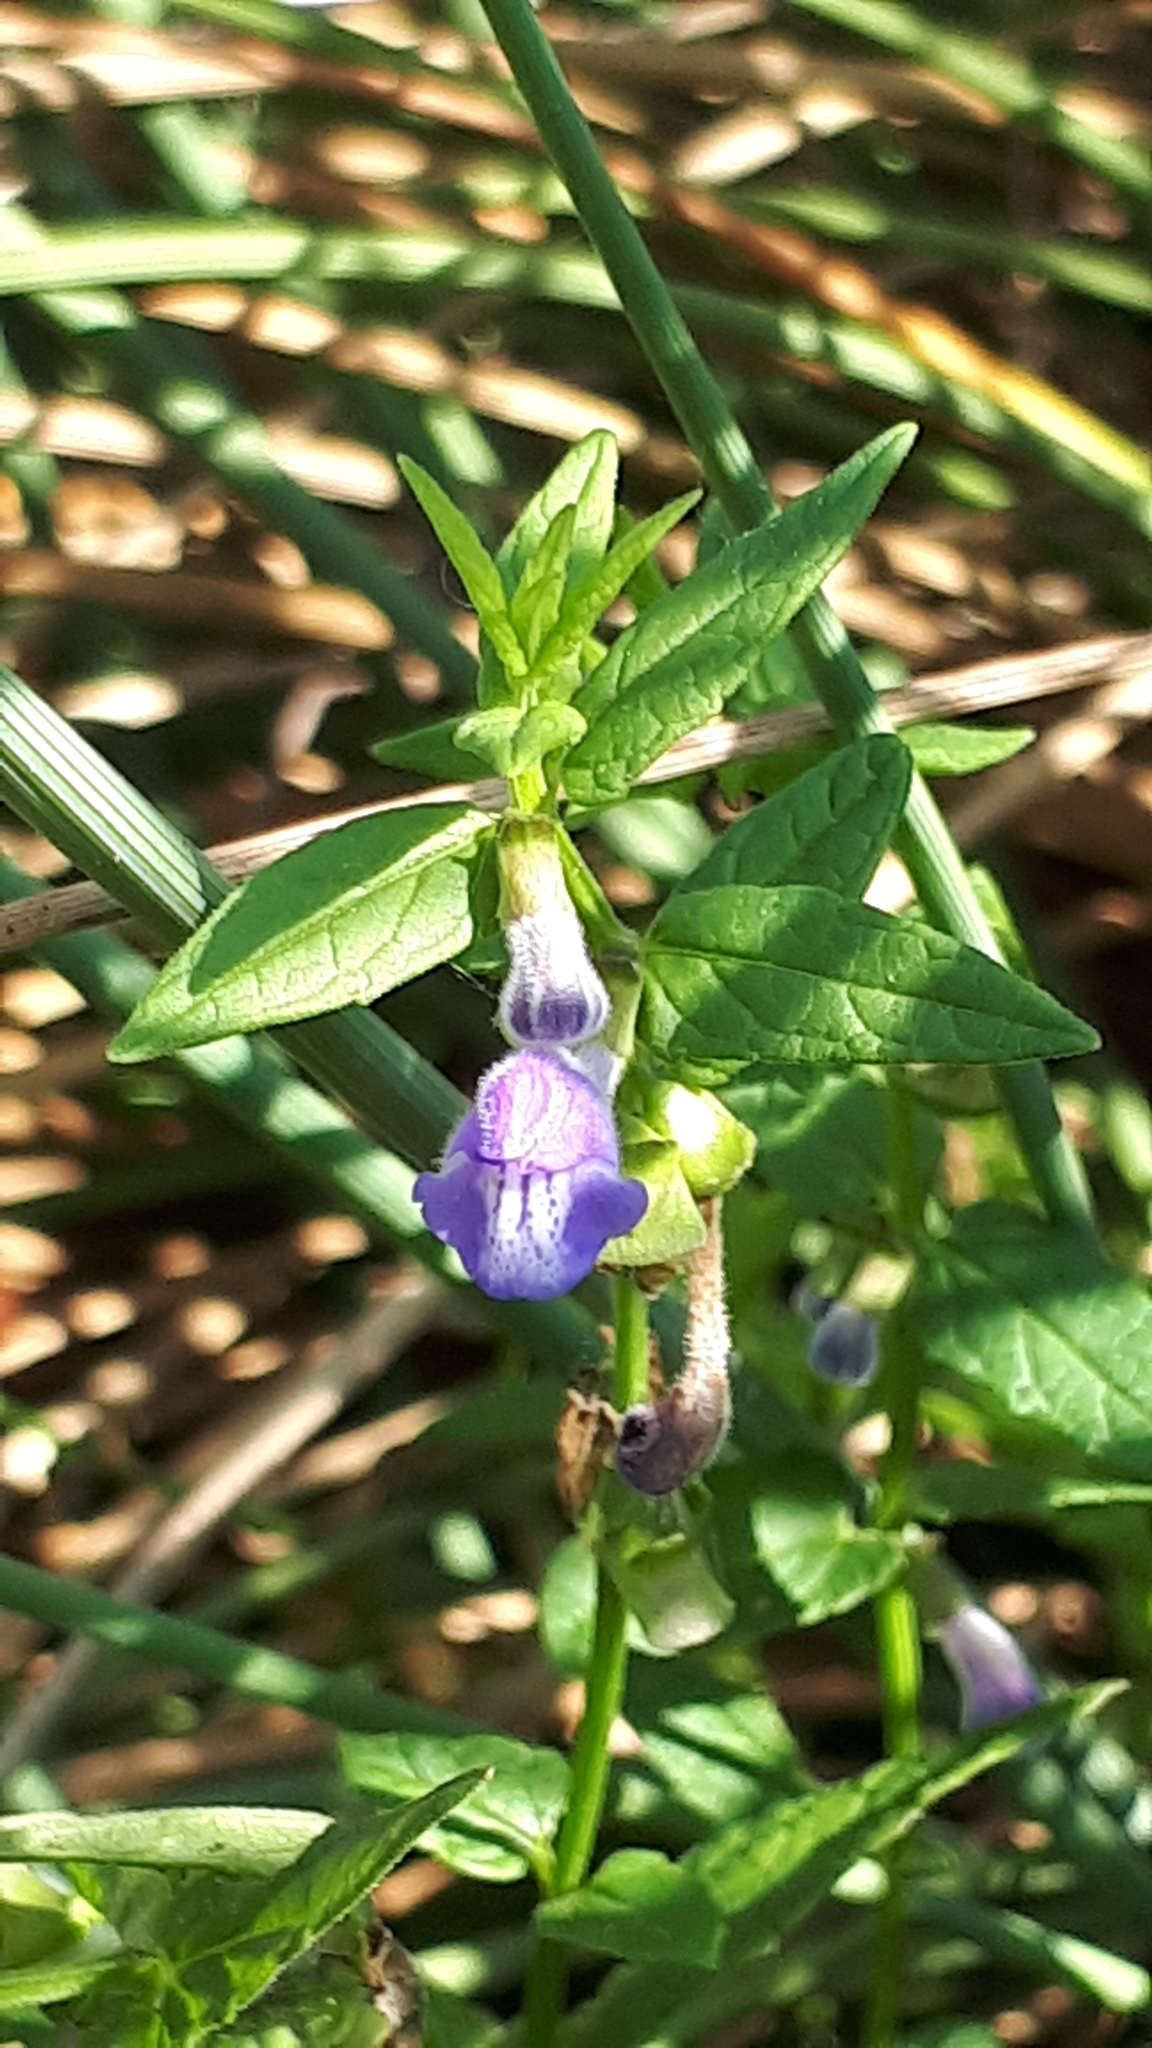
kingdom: Plantae
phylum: Tracheophyta
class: Magnoliopsida
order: Lamiales
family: Lamiaceae
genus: Scutellaria
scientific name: Scutellaria galericulata
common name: Skullcap
